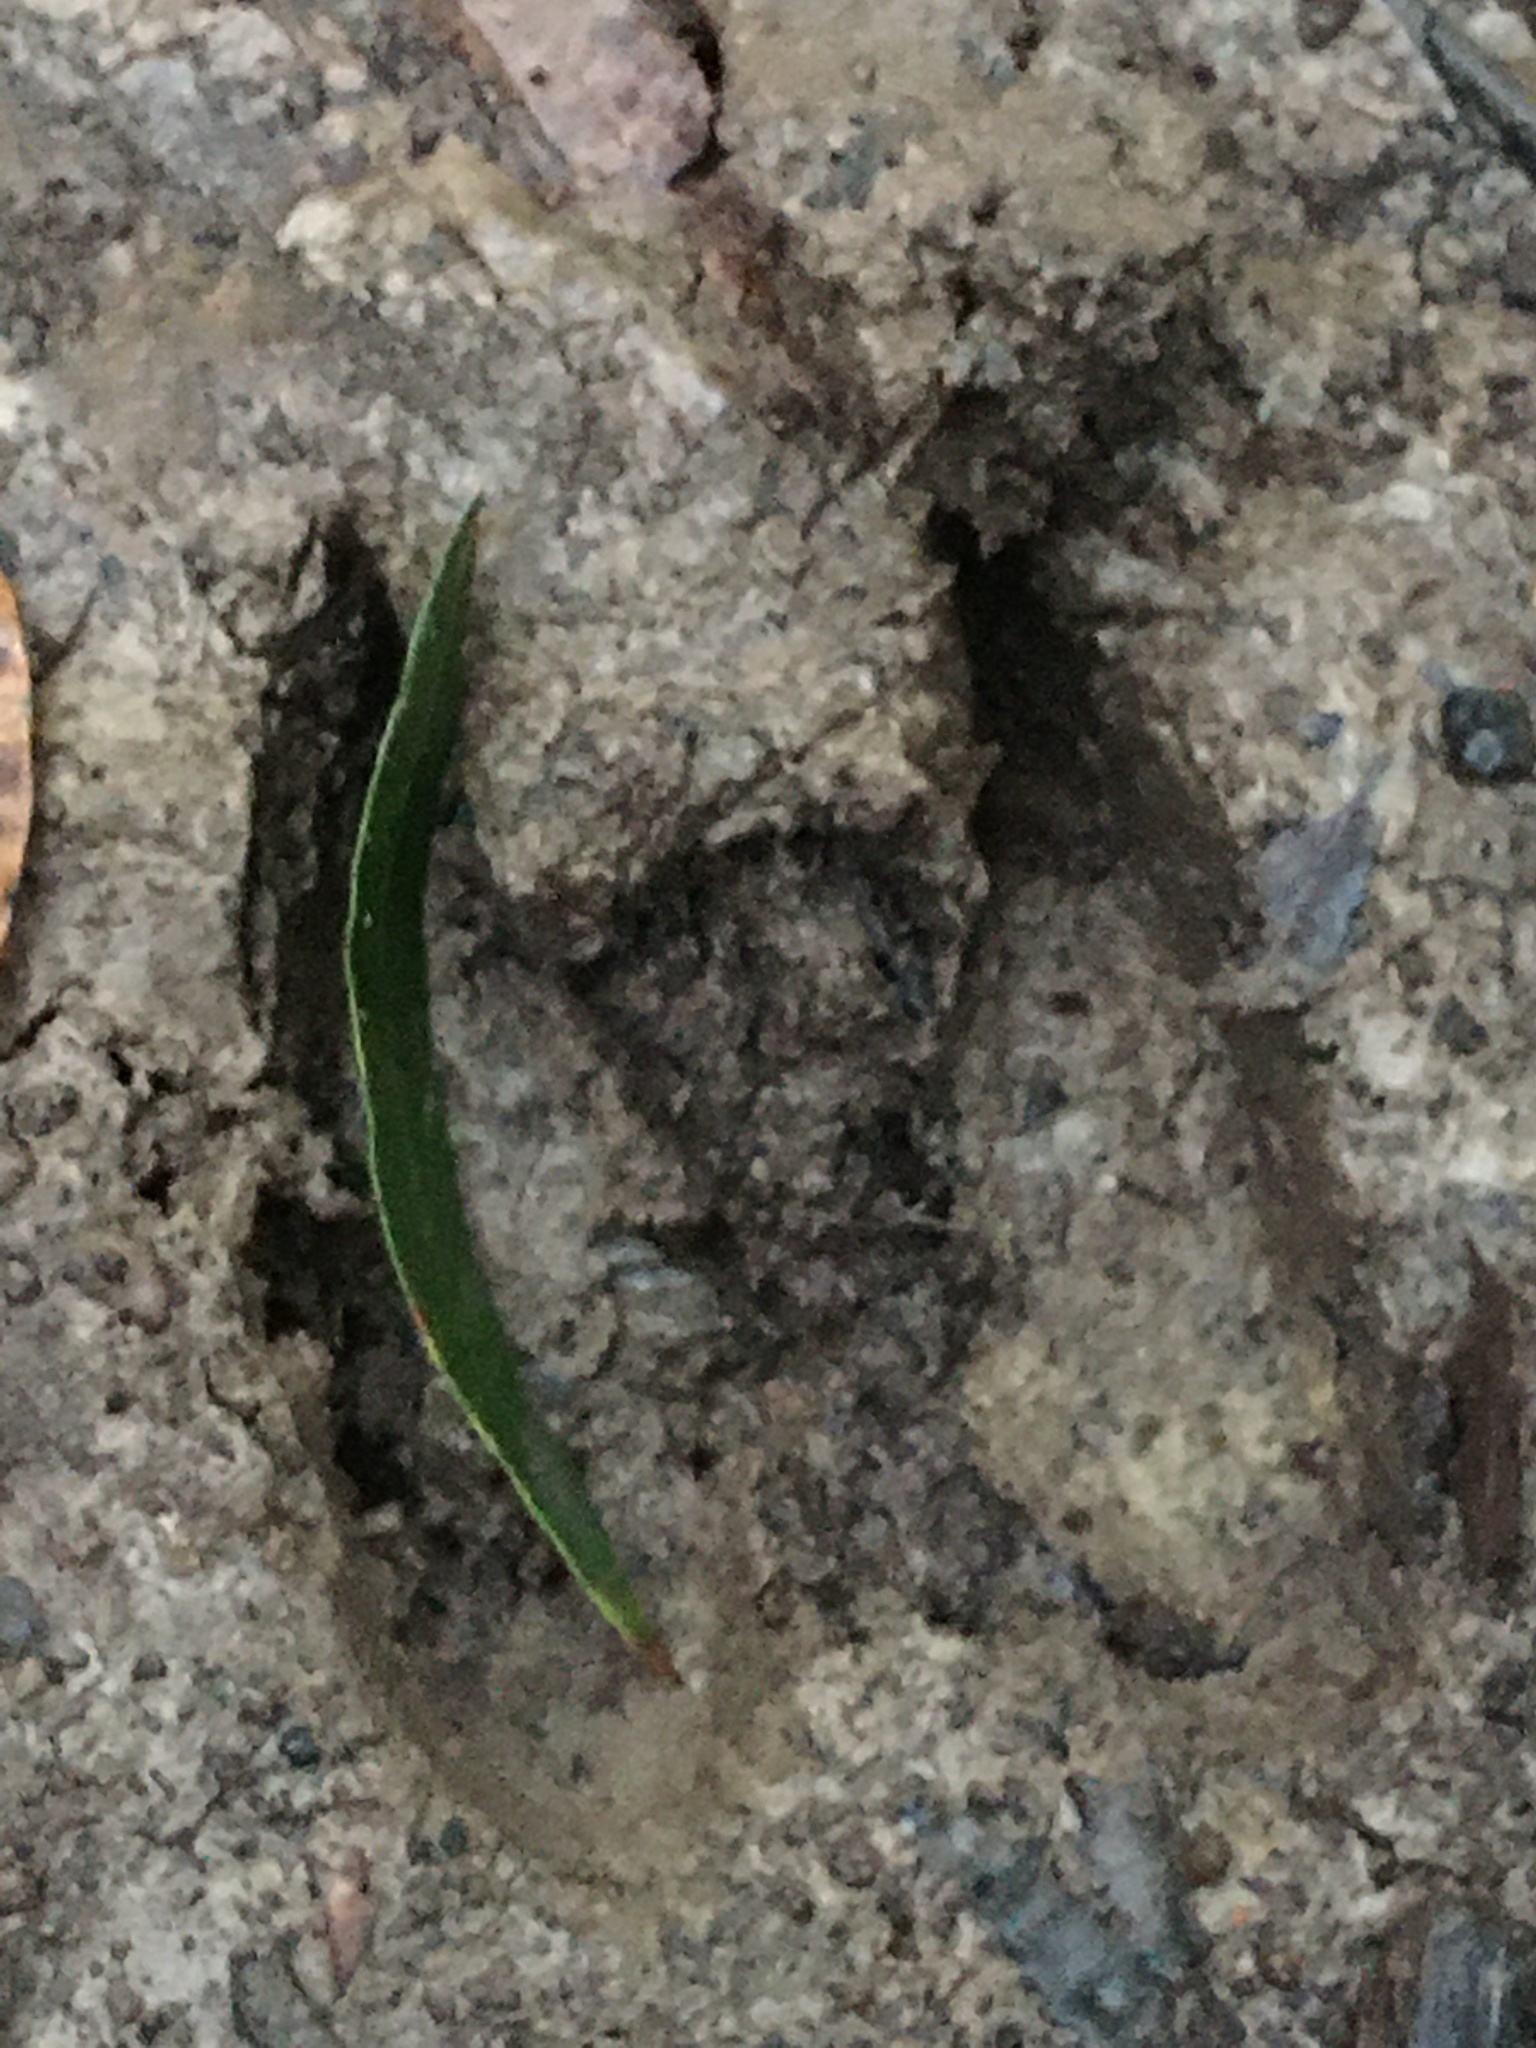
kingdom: Animalia
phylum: Chordata
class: Mammalia
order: Artiodactyla
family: Cervidae
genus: Odocoileus
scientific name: Odocoileus virginianus
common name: White-tailed deer
